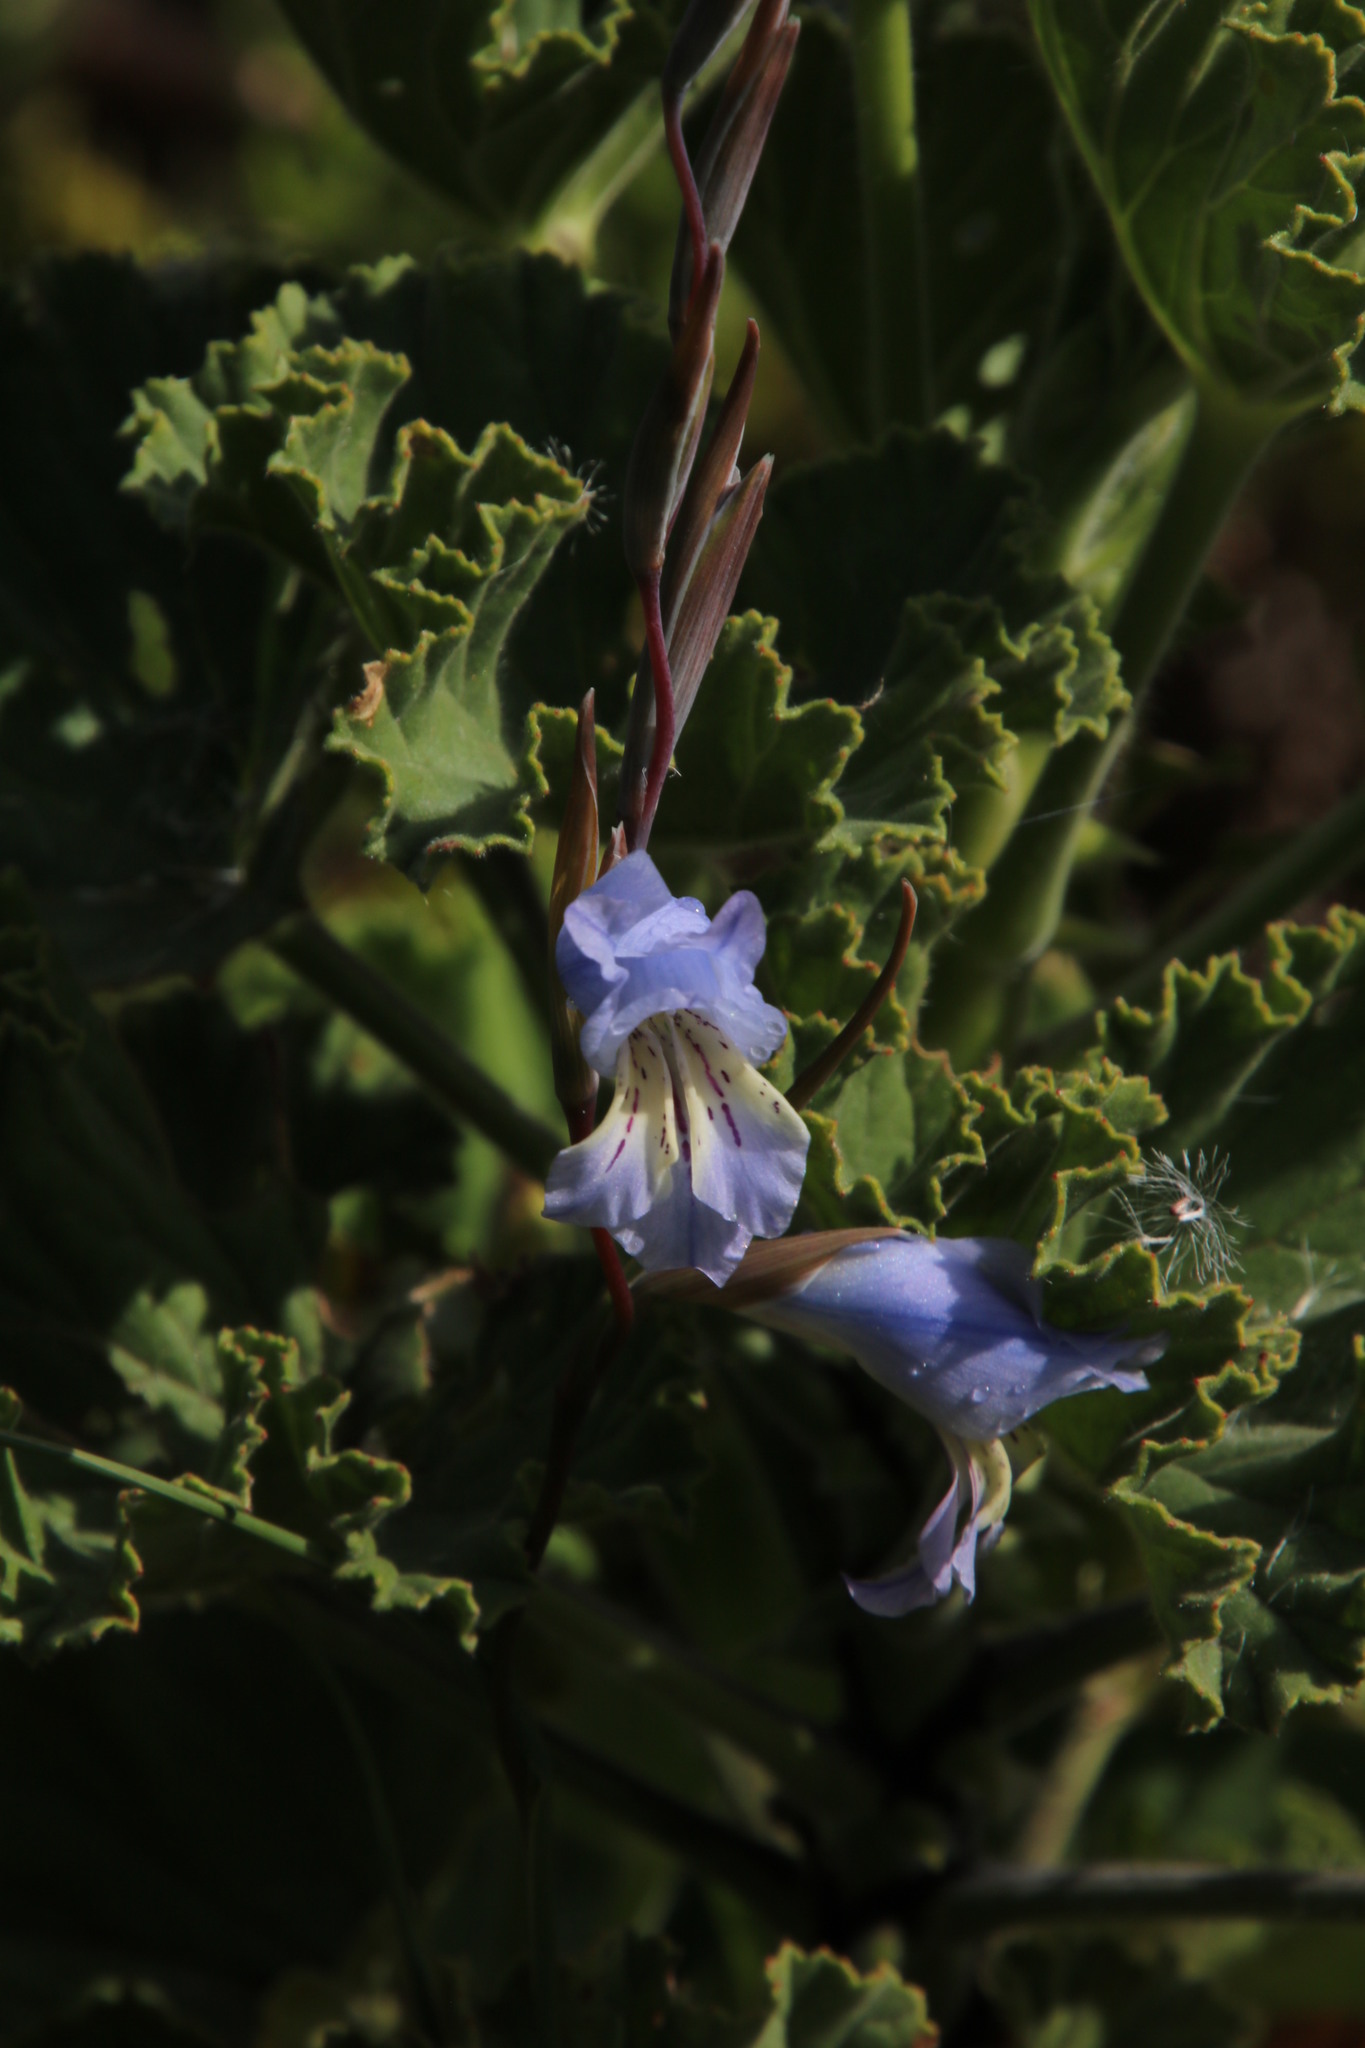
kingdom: Plantae
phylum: Tracheophyta
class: Liliopsida
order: Asparagales
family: Iridaceae
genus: Gladiolus
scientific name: Gladiolus gracilis
